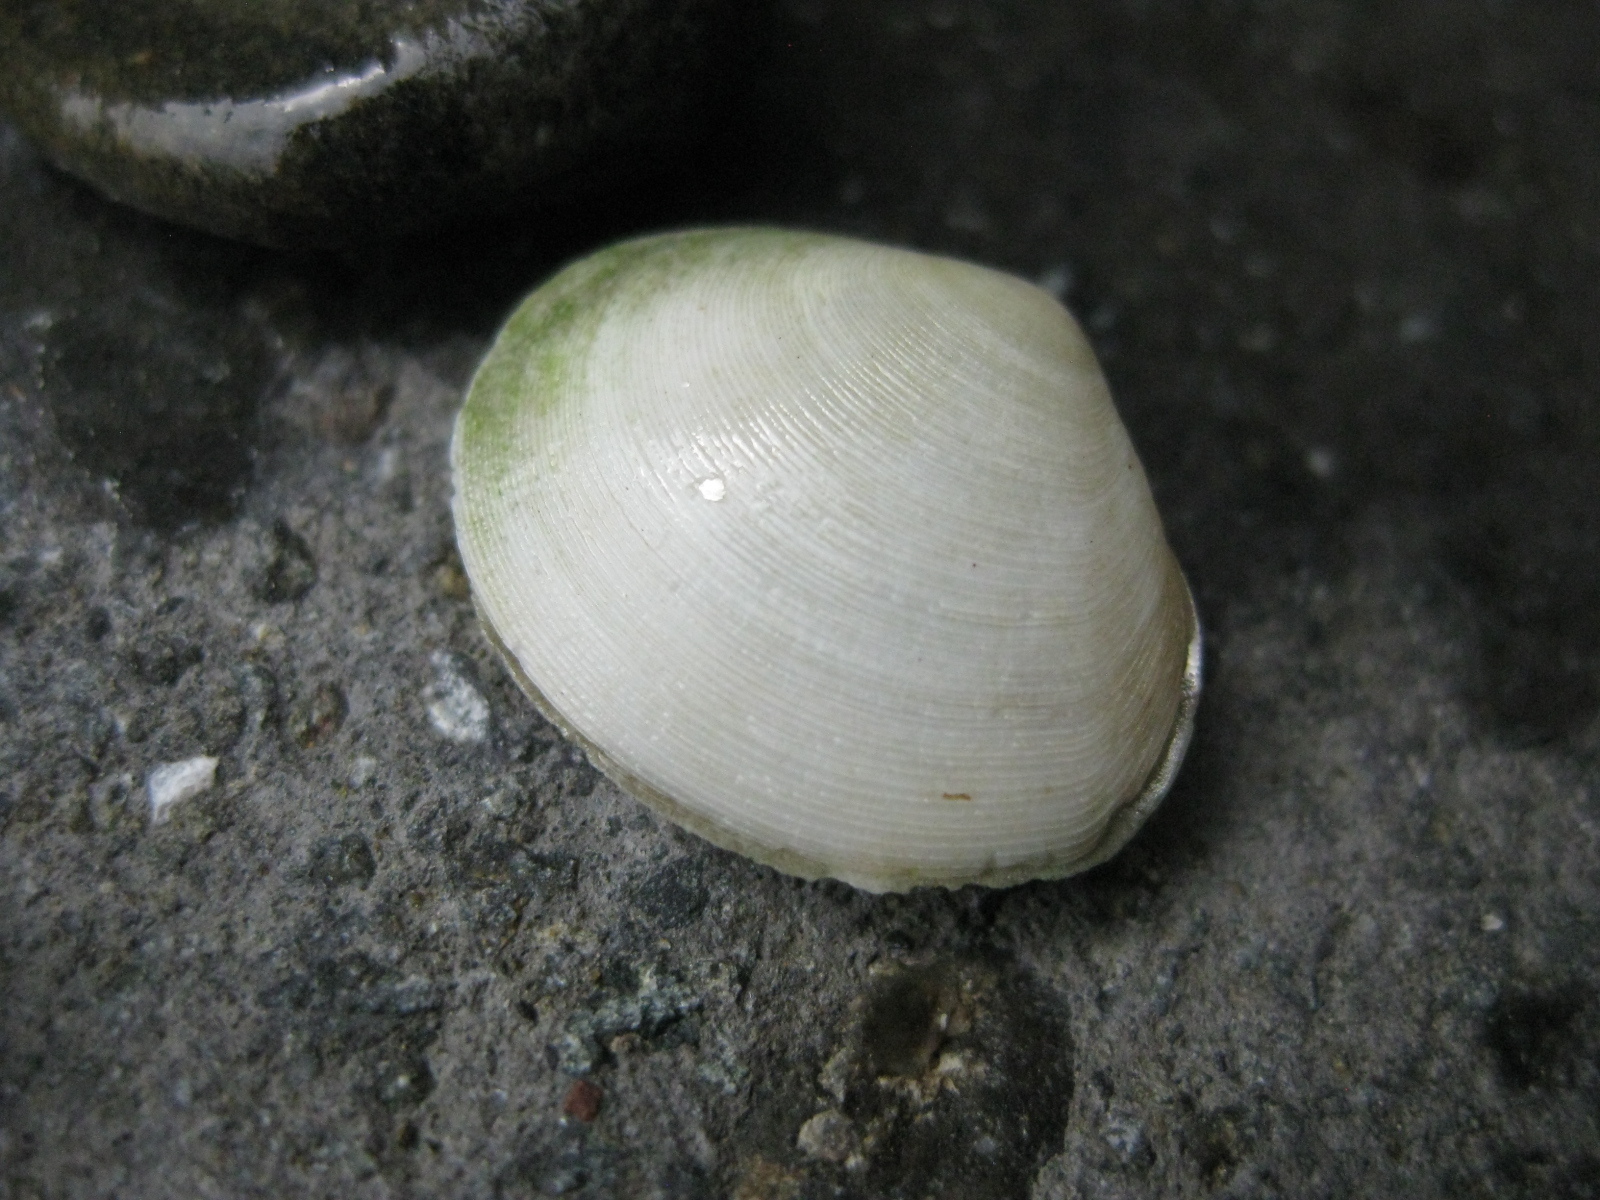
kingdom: Animalia
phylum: Mollusca
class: Bivalvia
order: Cardiida
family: Tellinidae
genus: Pseudarcopagia
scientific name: Pseudarcopagia disculus
